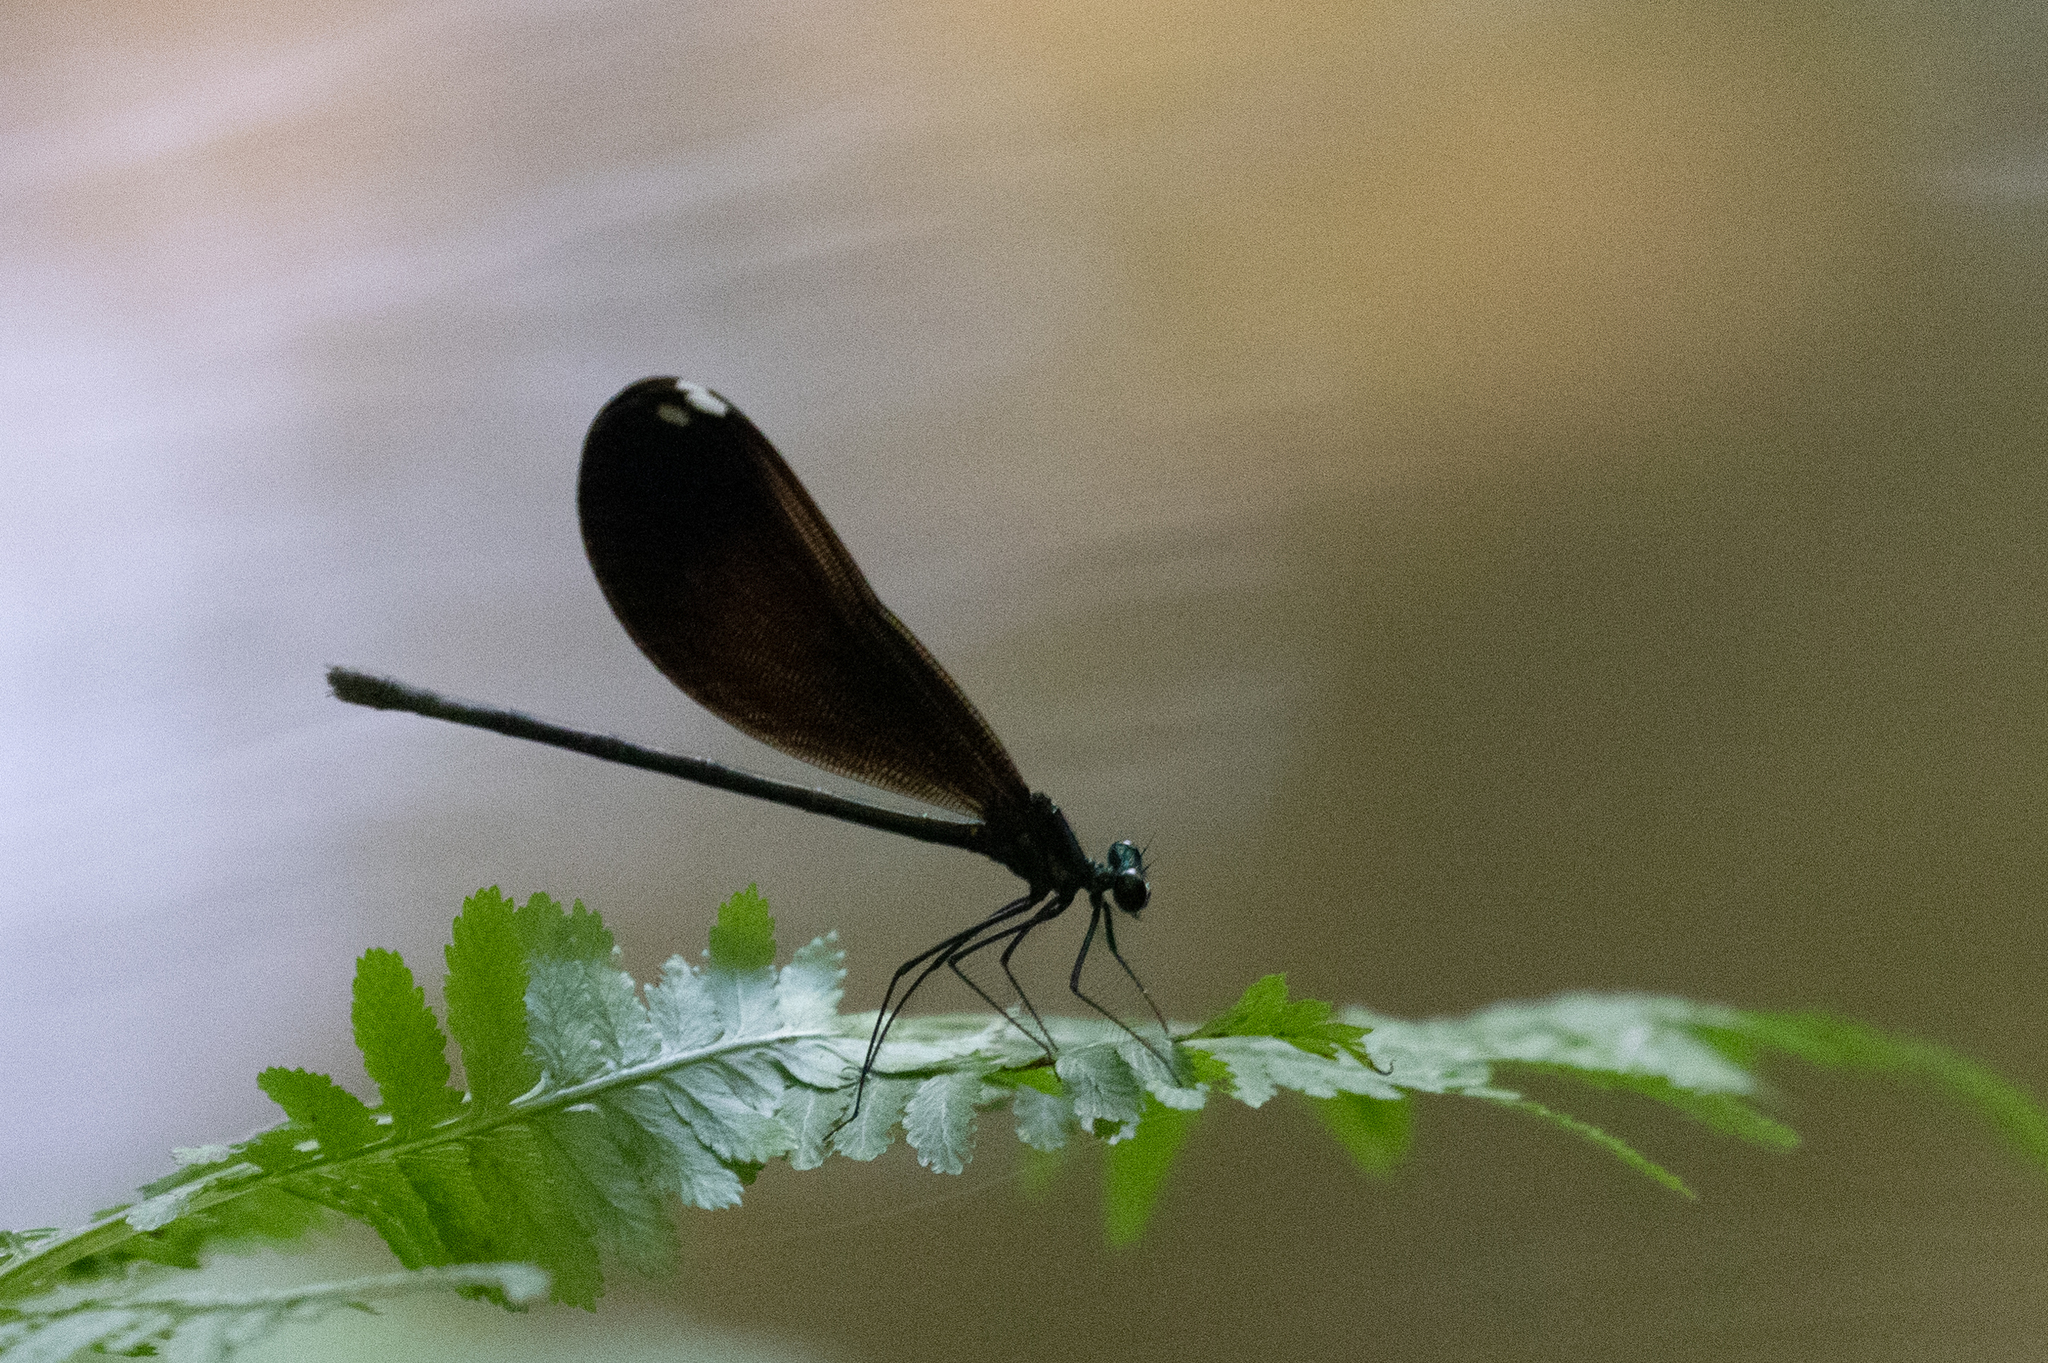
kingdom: Animalia
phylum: Arthropoda
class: Insecta
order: Odonata
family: Calopterygidae
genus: Calopteryx
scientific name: Calopteryx maculata
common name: Ebony jewelwing
